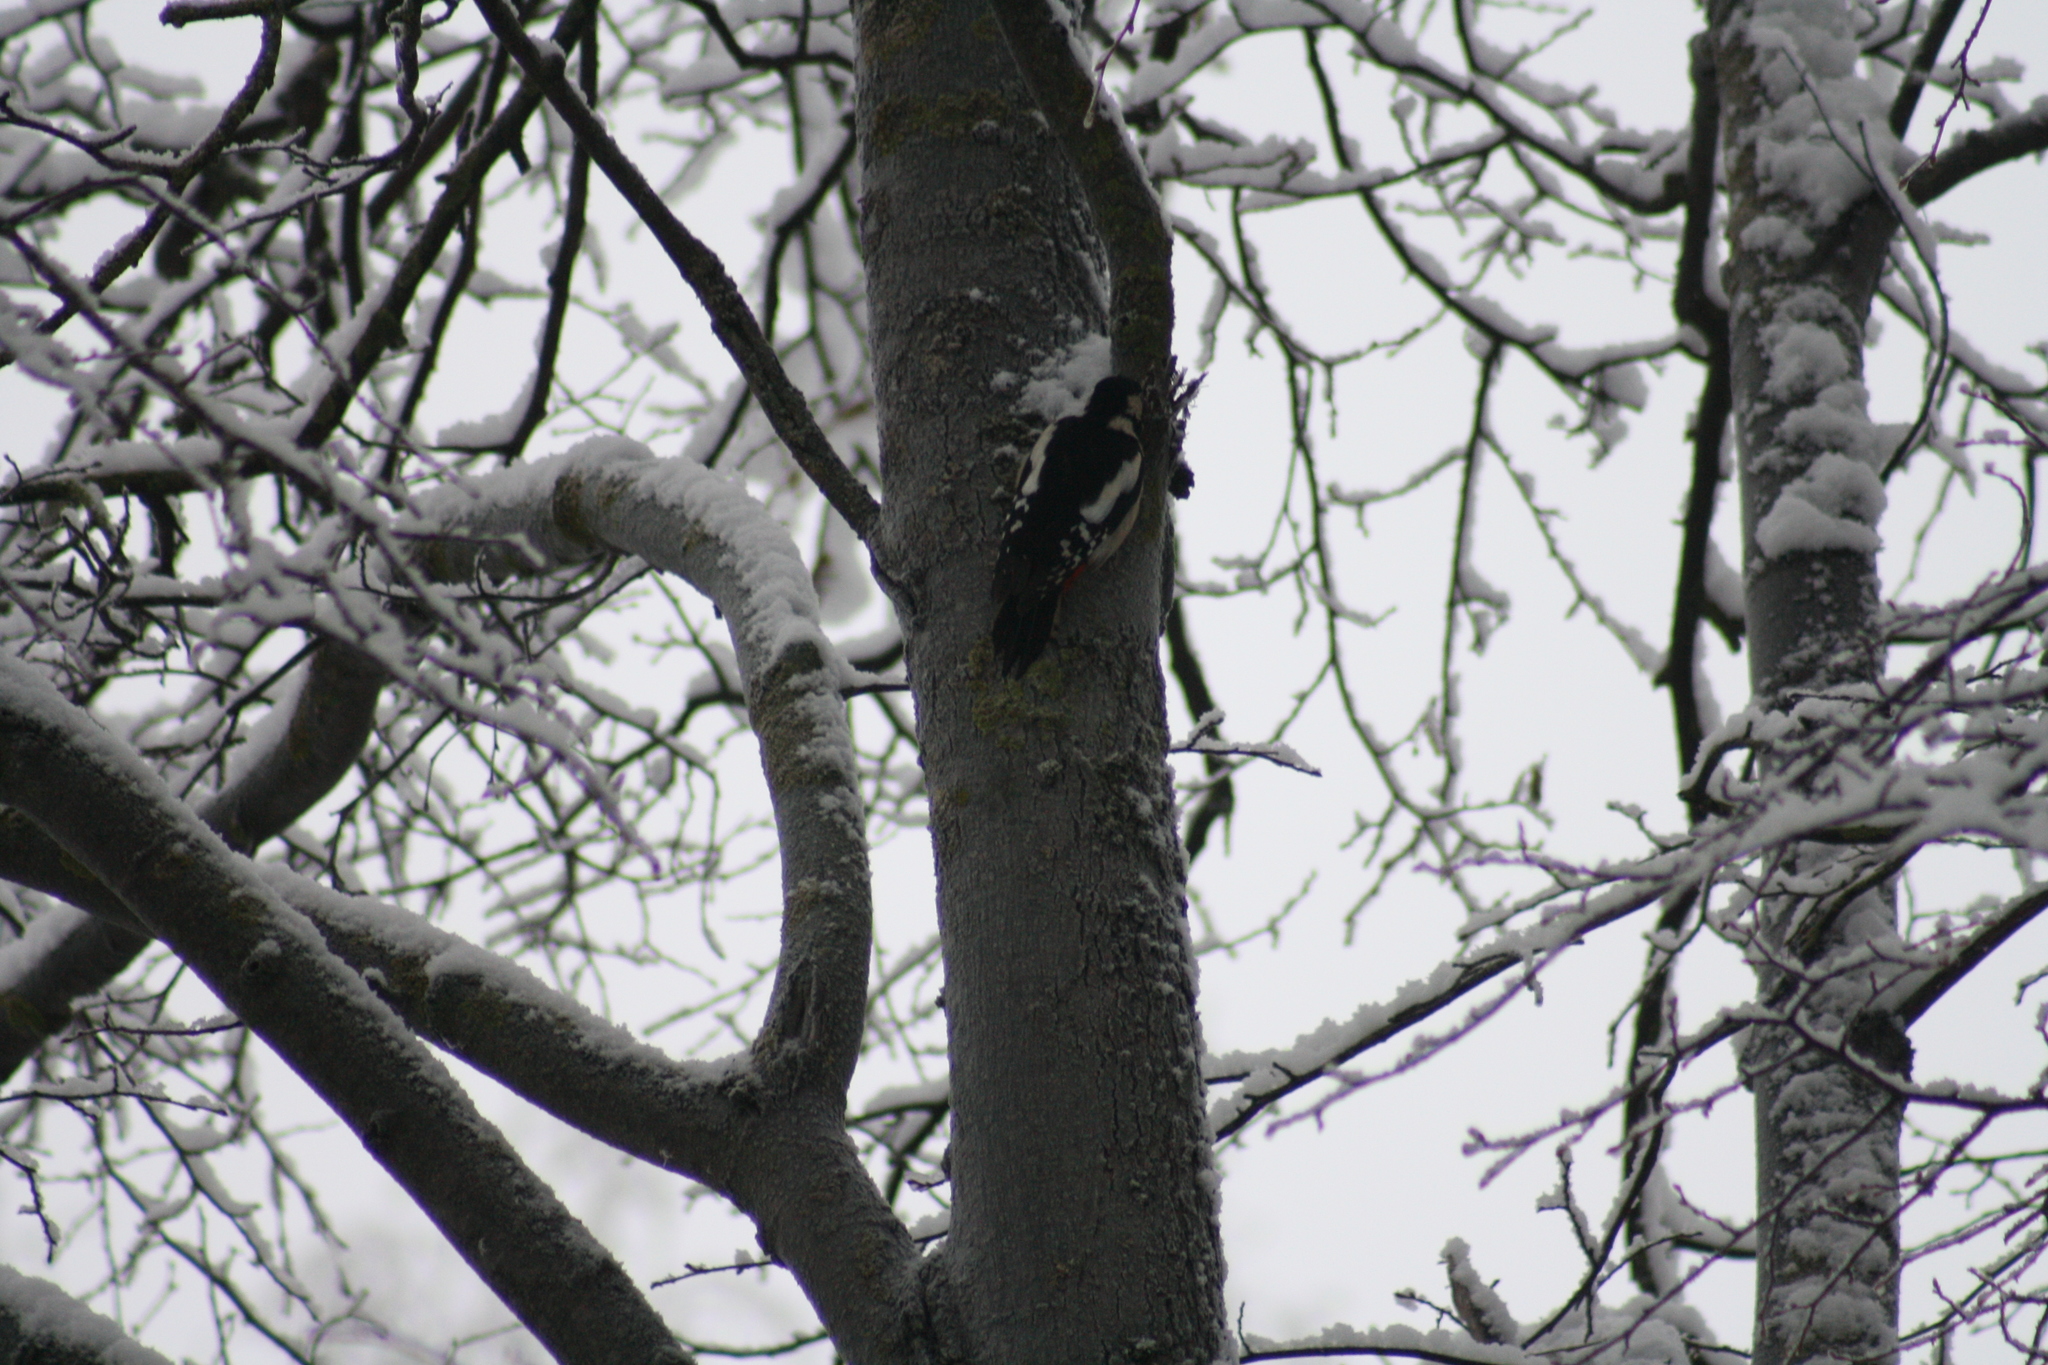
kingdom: Animalia
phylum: Chordata
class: Aves
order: Piciformes
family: Picidae
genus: Dendrocopos
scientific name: Dendrocopos major
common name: Great spotted woodpecker
